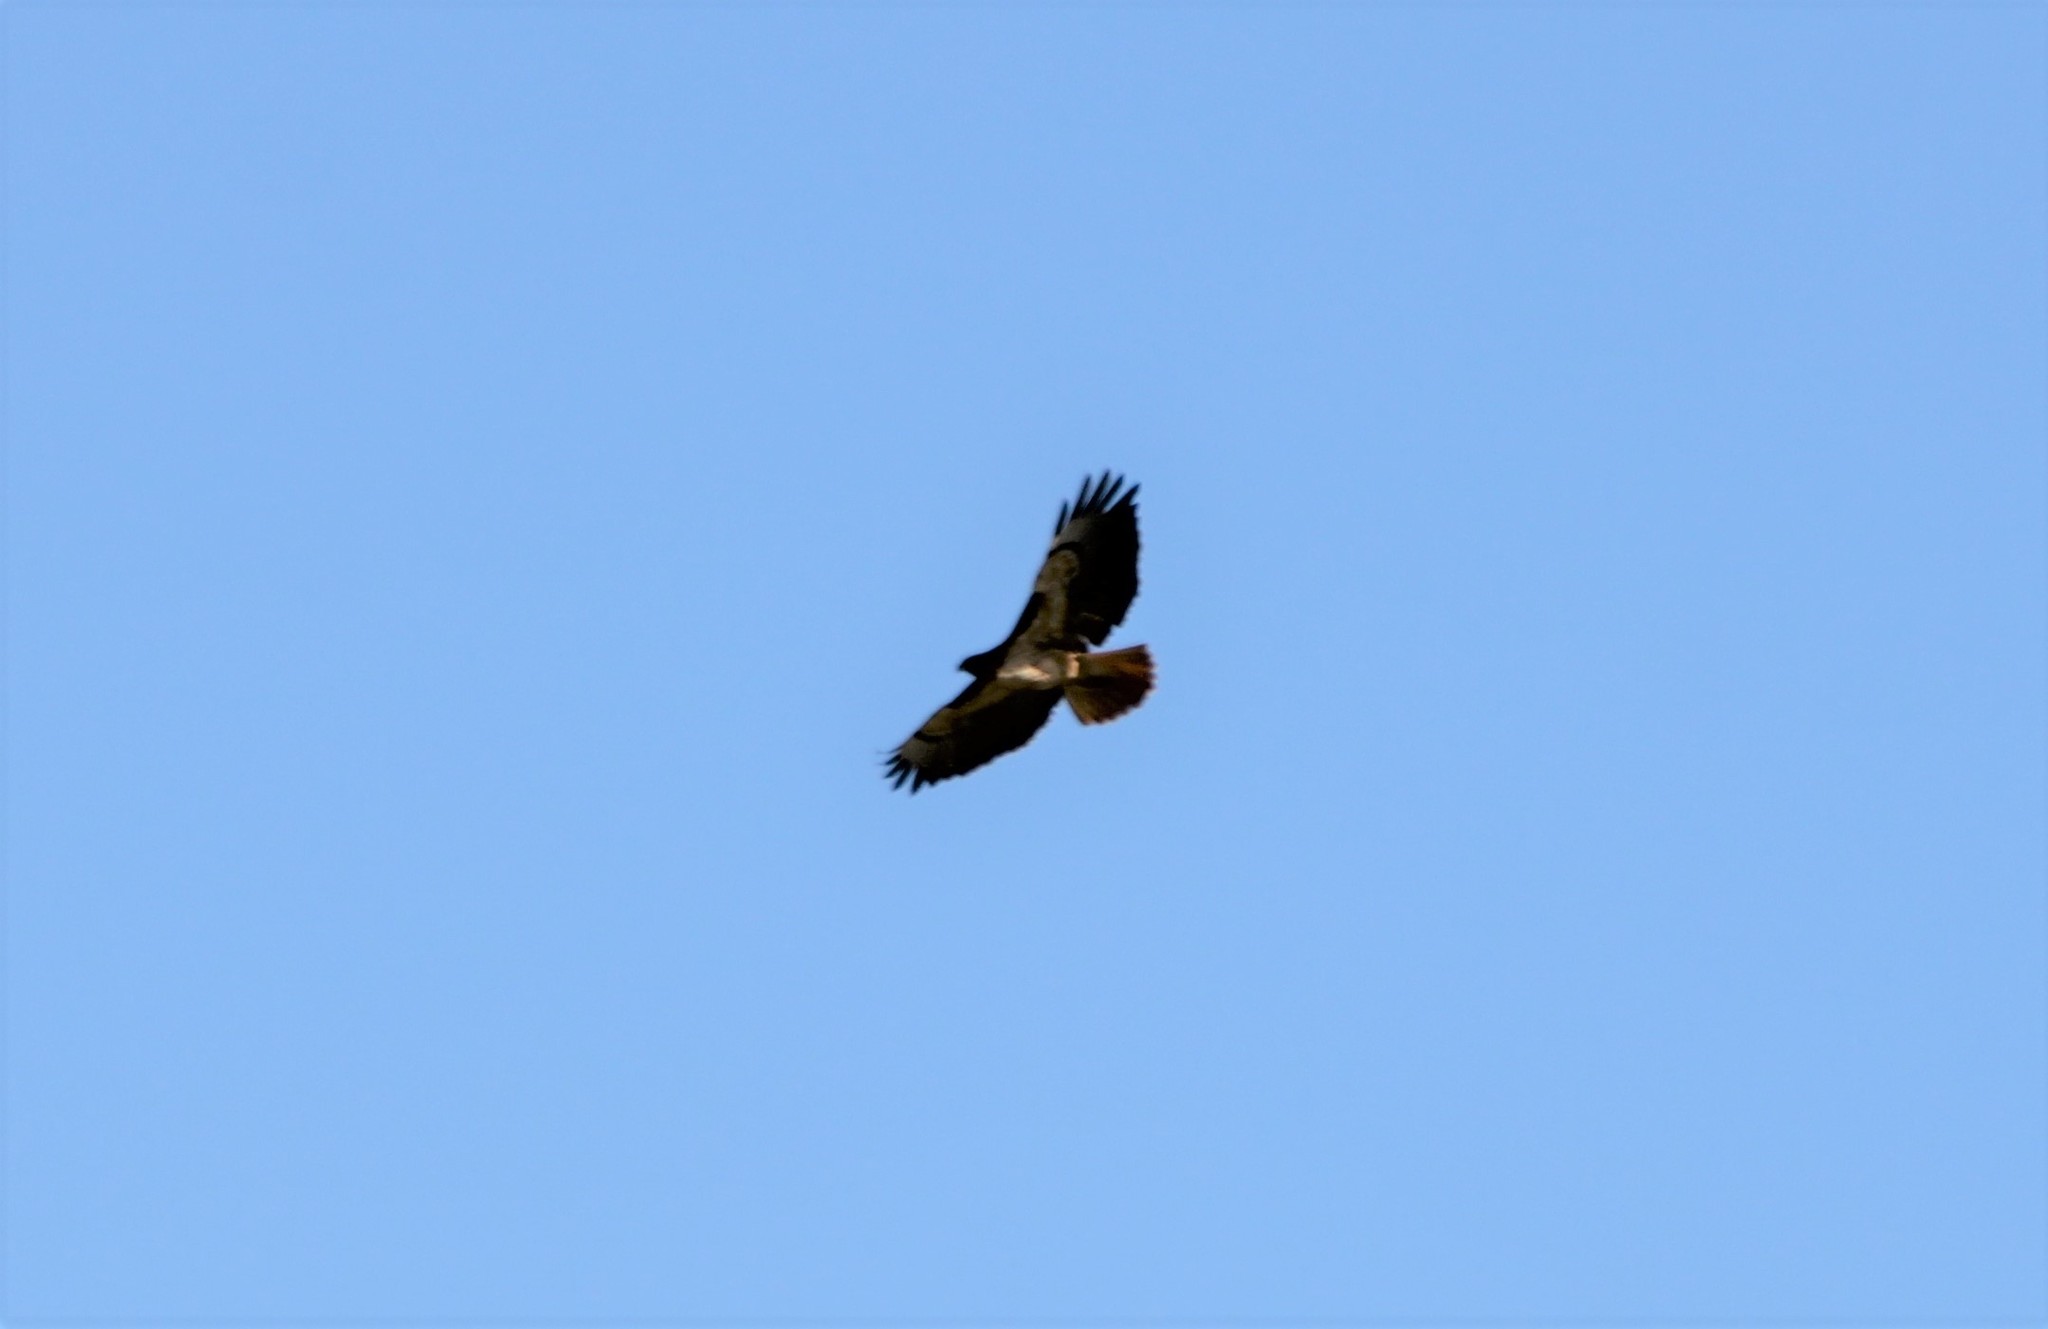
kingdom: Animalia
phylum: Chordata
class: Aves
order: Accipitriformes
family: Accipitridae
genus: Buteo
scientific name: Buteo jamaicensis
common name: Red-tailed hawk
